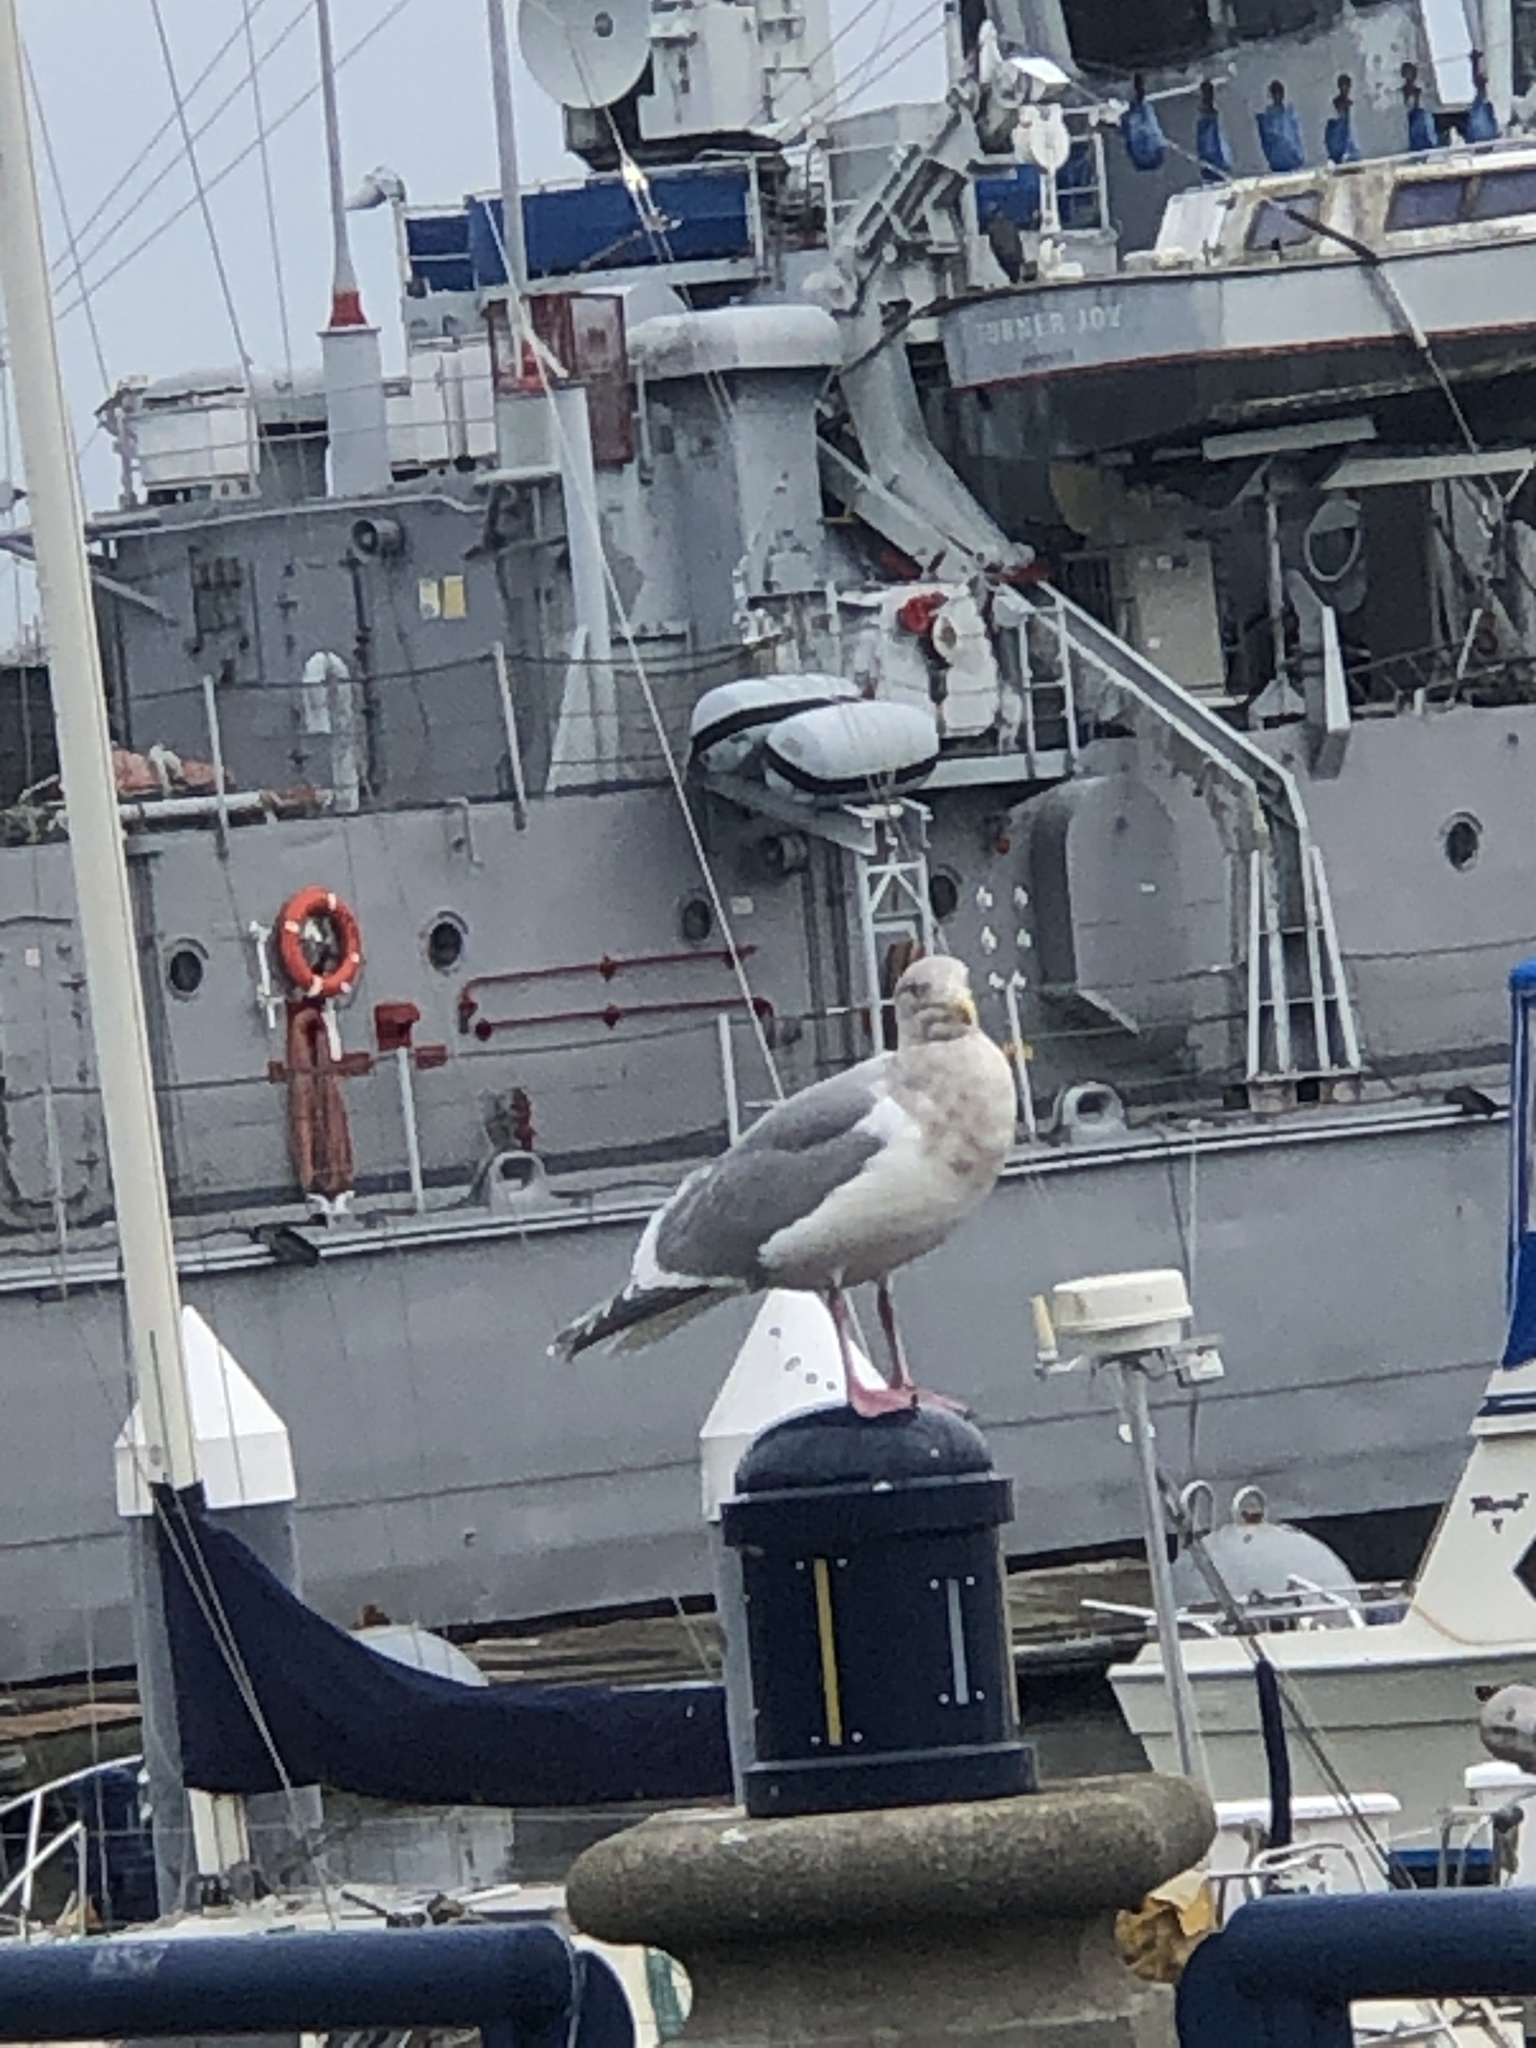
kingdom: Animalia
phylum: Chordata
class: Aves
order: Charadriiformes
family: Laridae
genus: Larus
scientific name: Larus
